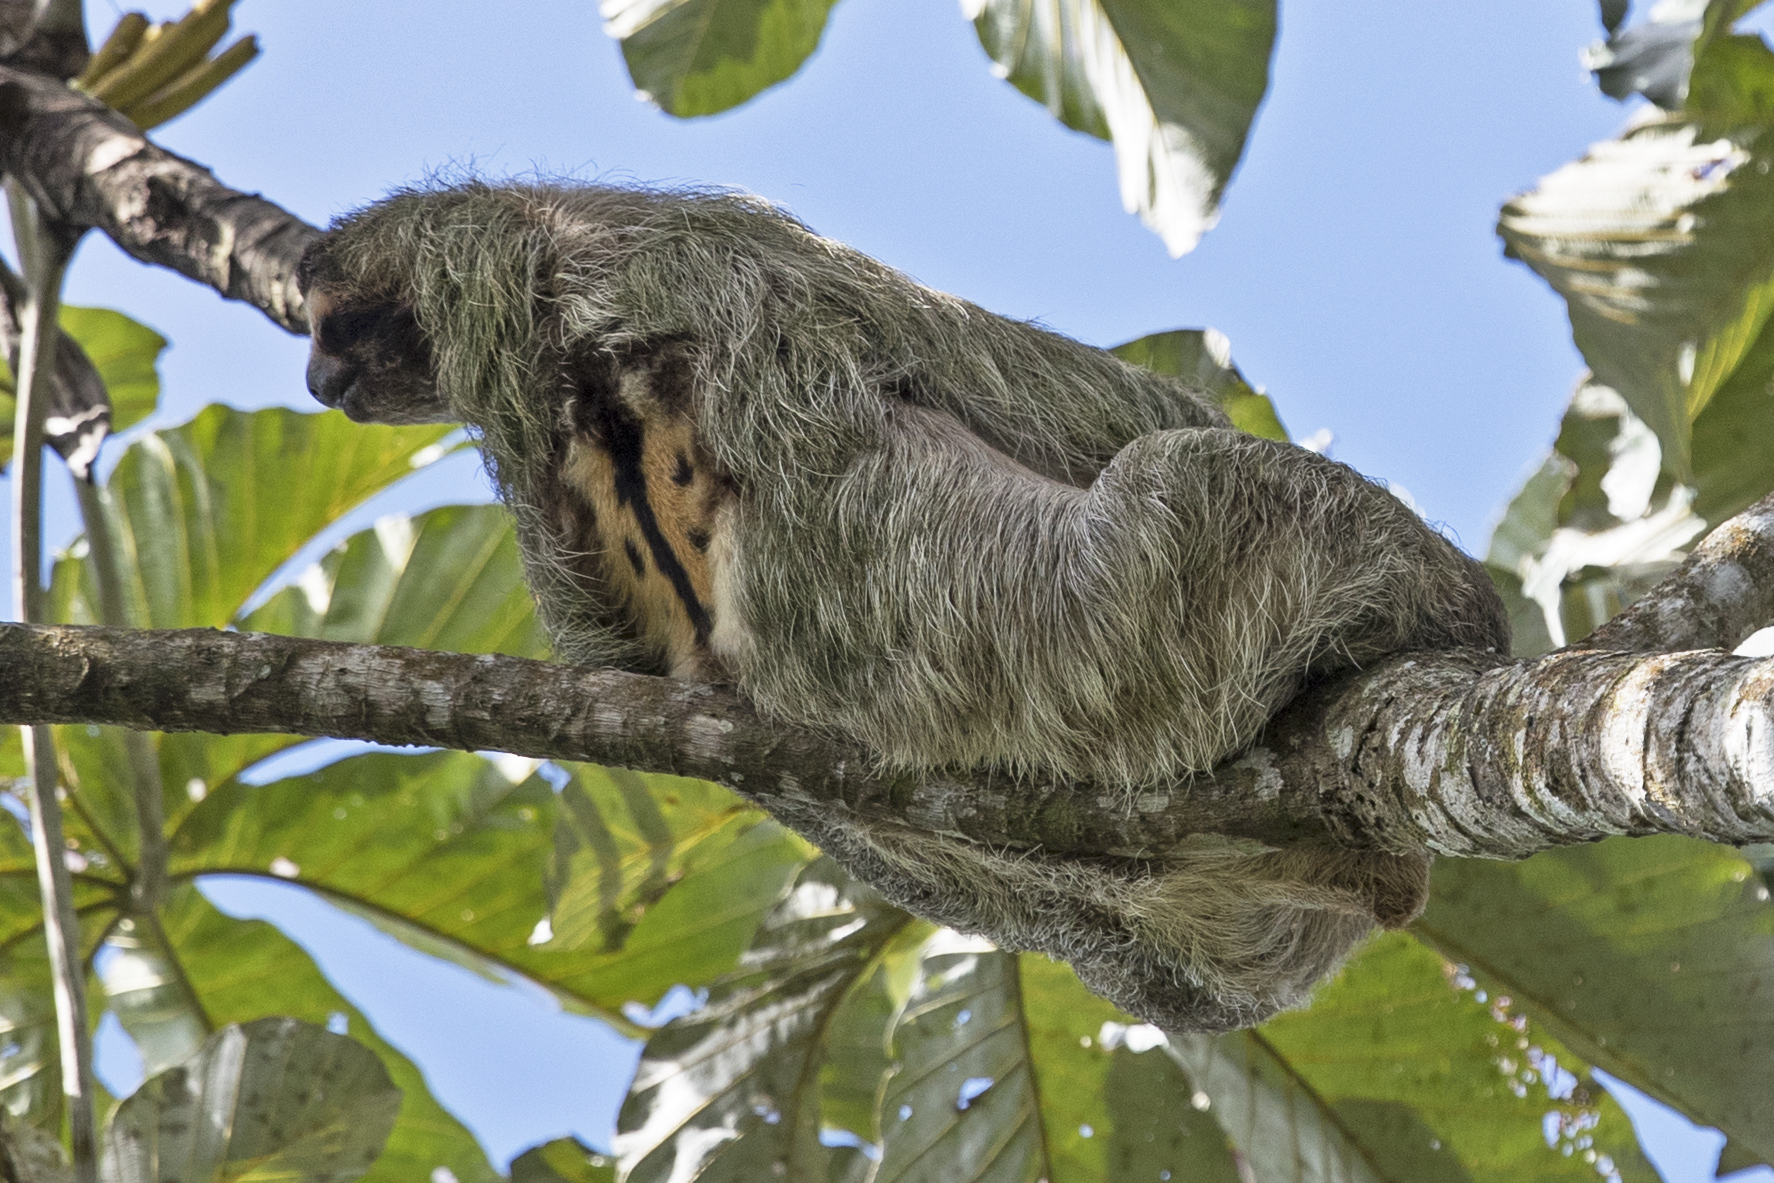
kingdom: Animalia
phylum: Chordata
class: Mammalia
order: Pilosa
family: Bradypodidae
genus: Bradypus
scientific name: Bradypus variegatus
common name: Brown-throated three-toed sloth
